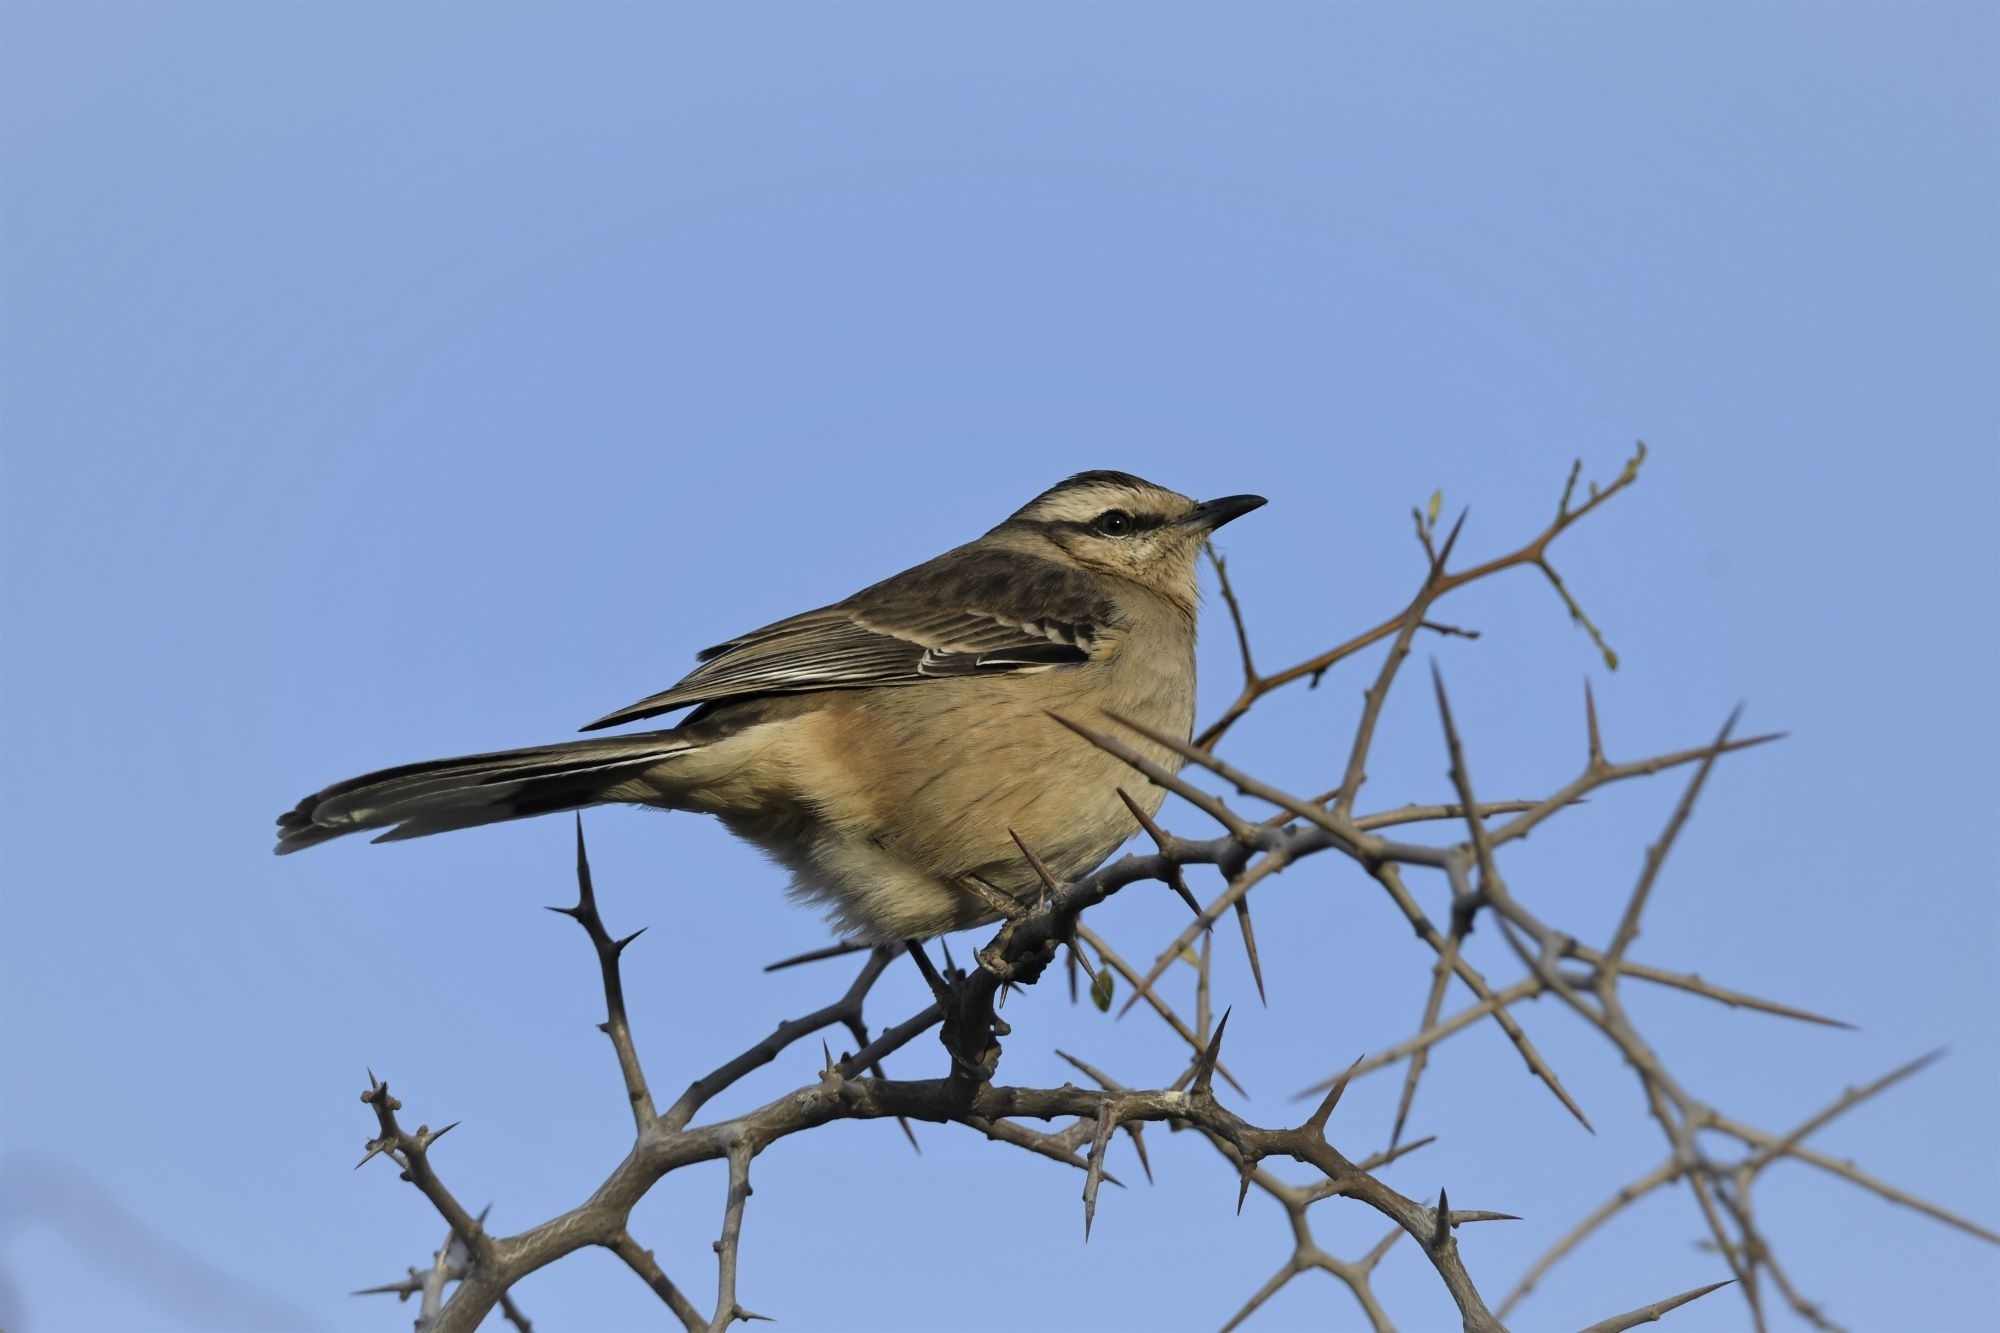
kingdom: Animalia
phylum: Chordata
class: Aves
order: Passeriformes
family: Mimidae
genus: Mimus
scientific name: Mimus saturninus
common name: Chalk-browed mockingbird
